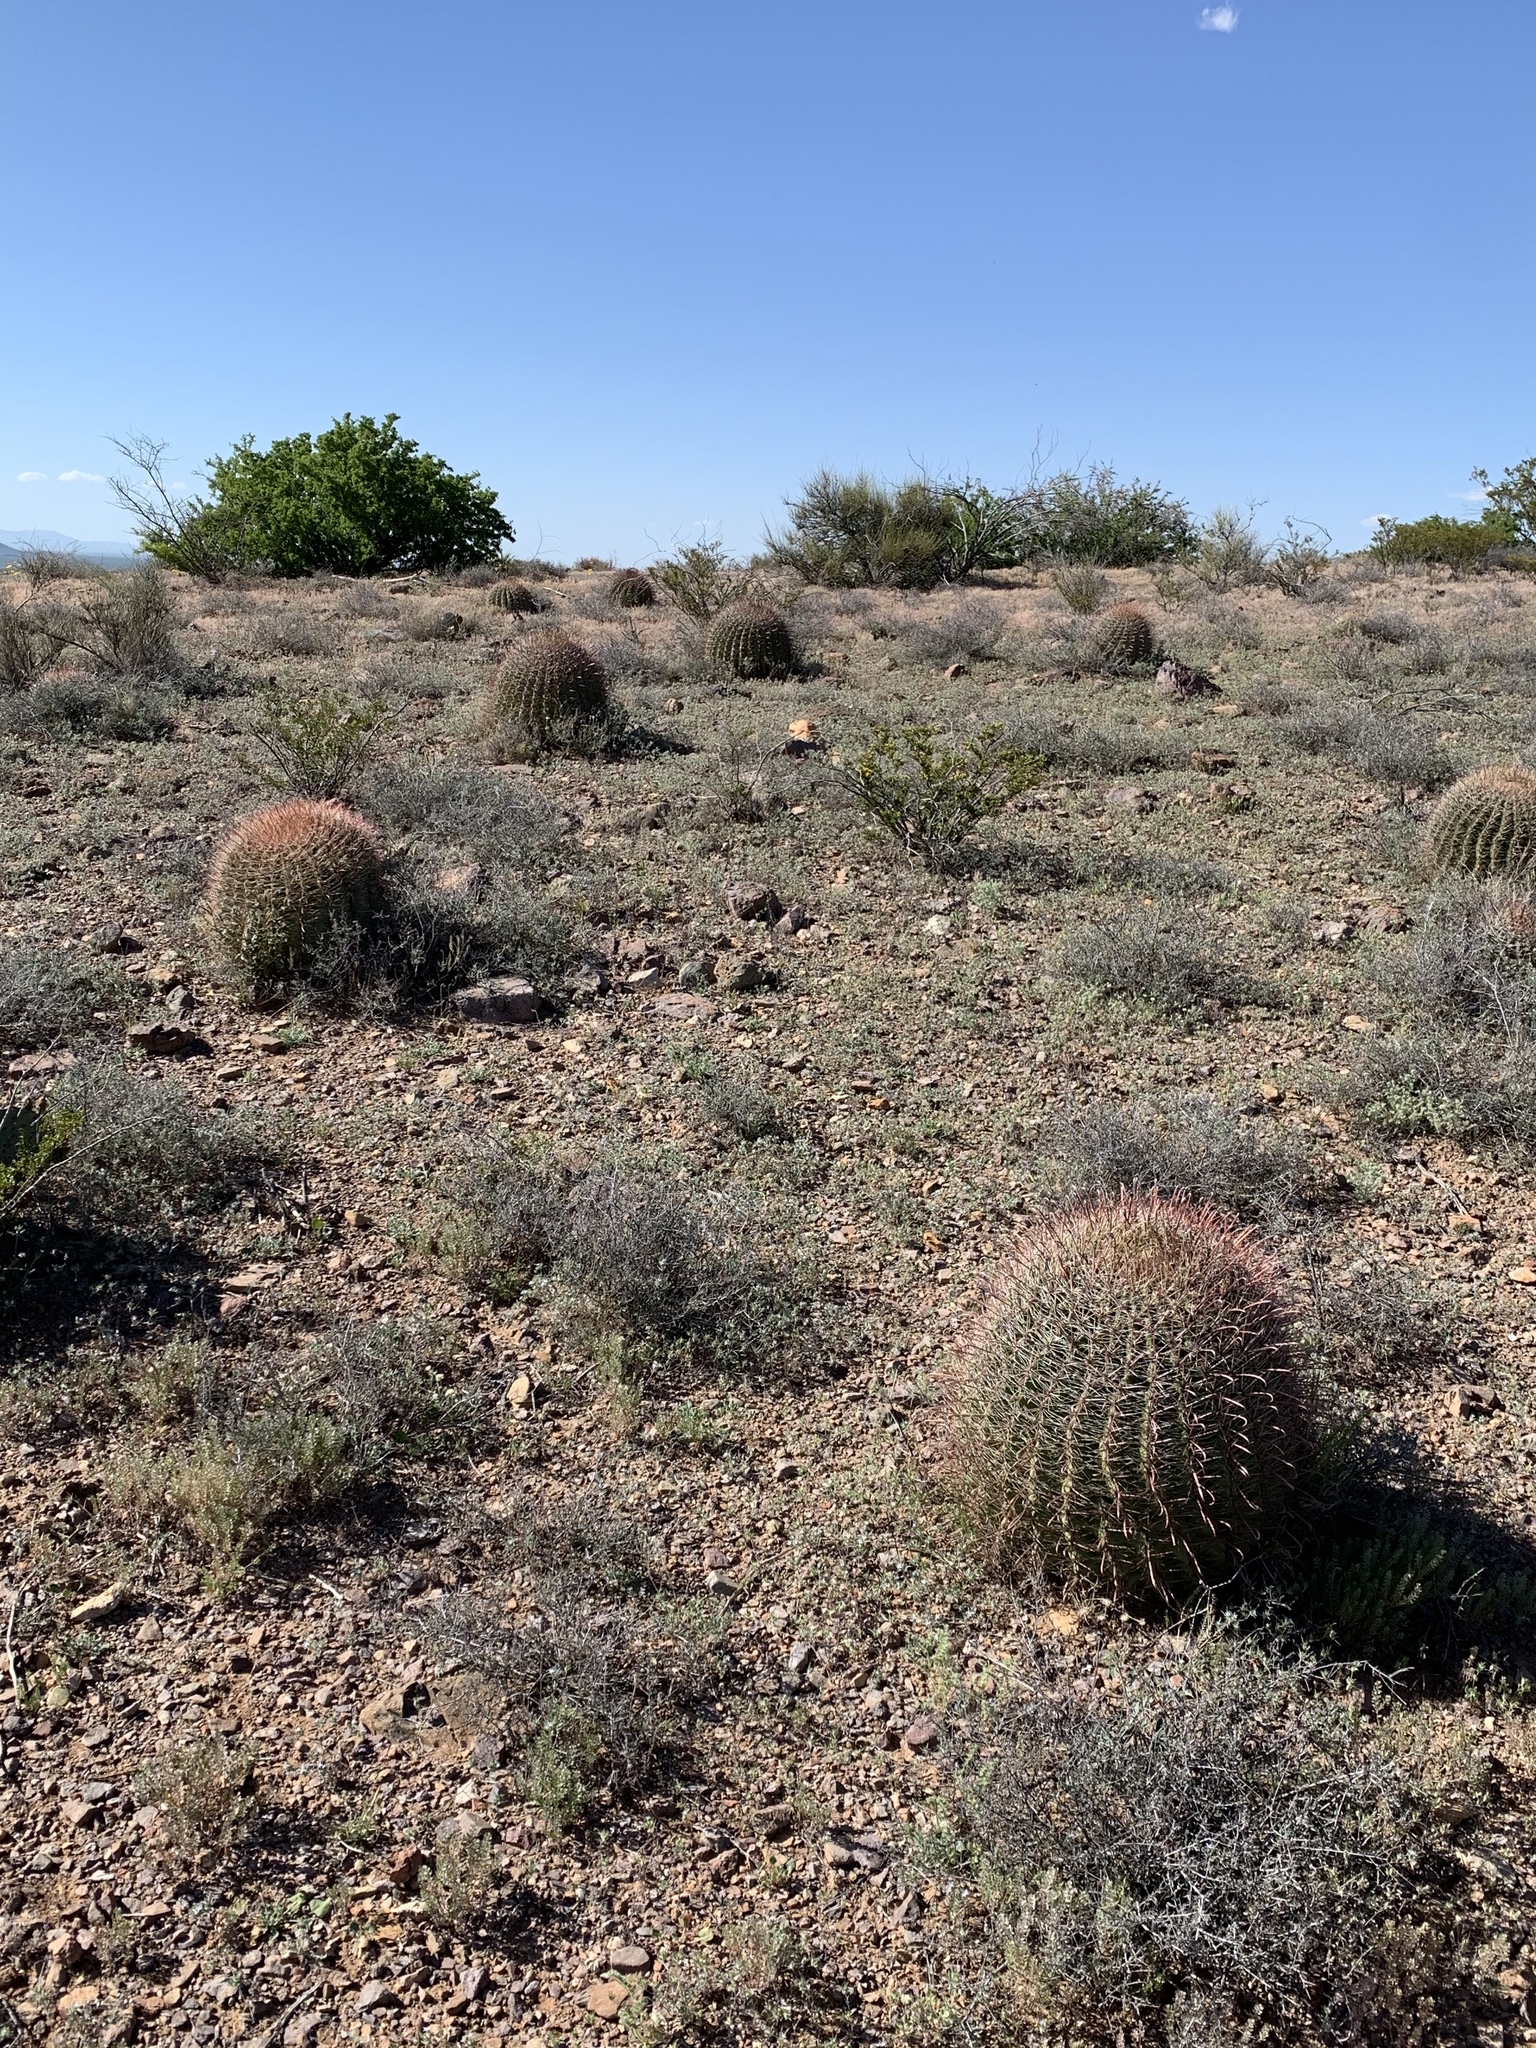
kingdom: Plantae
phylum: Tracheophyta
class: Magnoliopsida
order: Caryophyllales
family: Cactaceae
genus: Ferocactus
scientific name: Ferocactus wislizeni
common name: Candy barrel cactus
